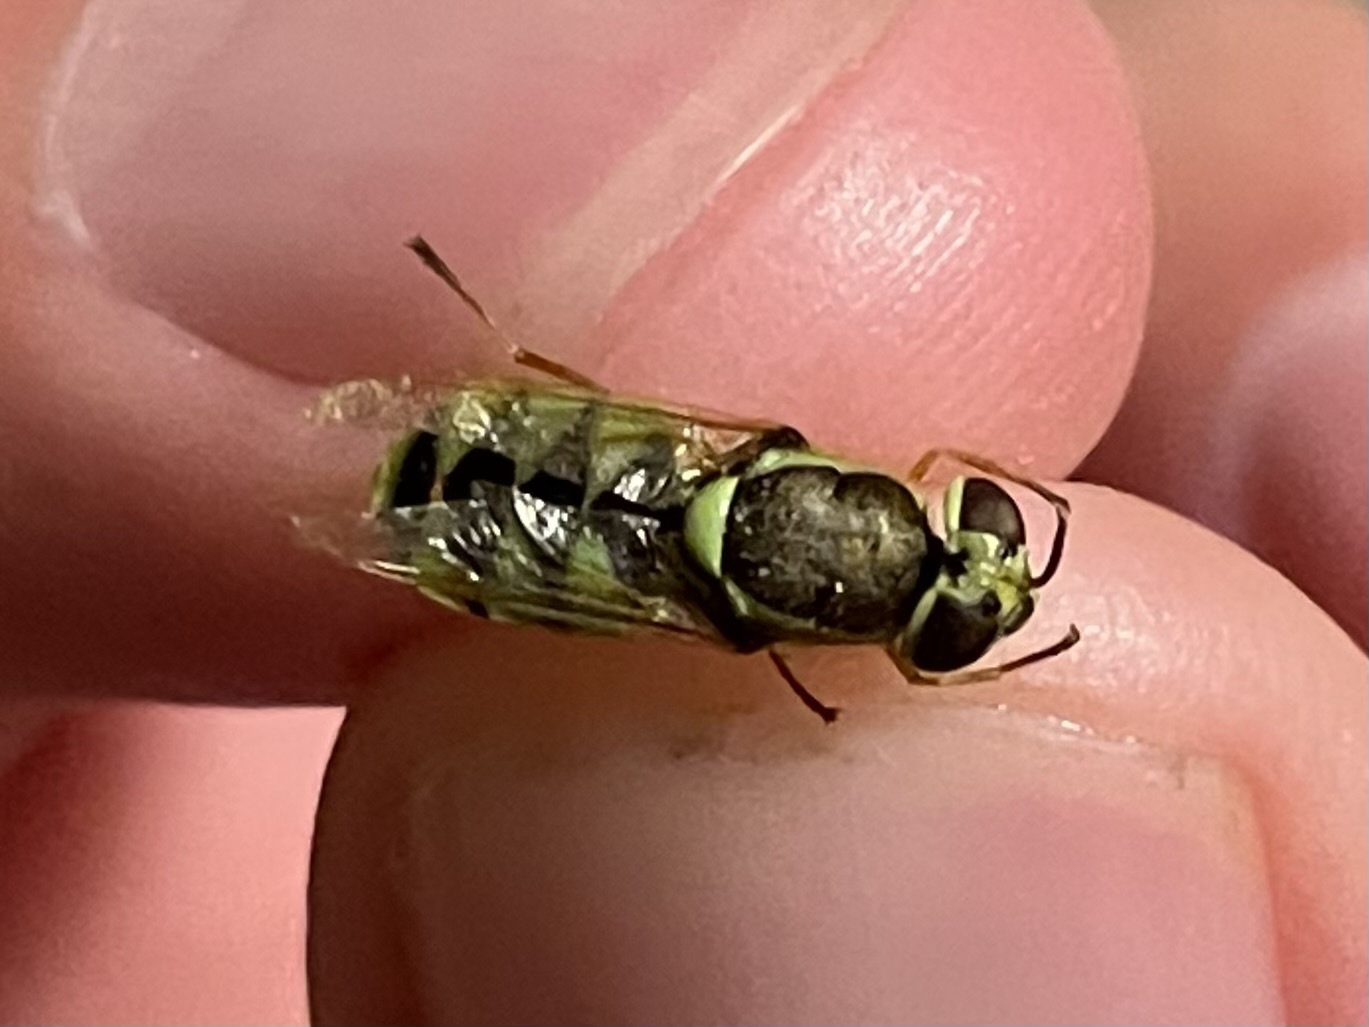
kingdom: Animalia
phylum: Arthropoda
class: Insecta
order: Diptera
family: Stratiomyidae
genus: Odontomyia
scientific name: Odontomyia cincta
